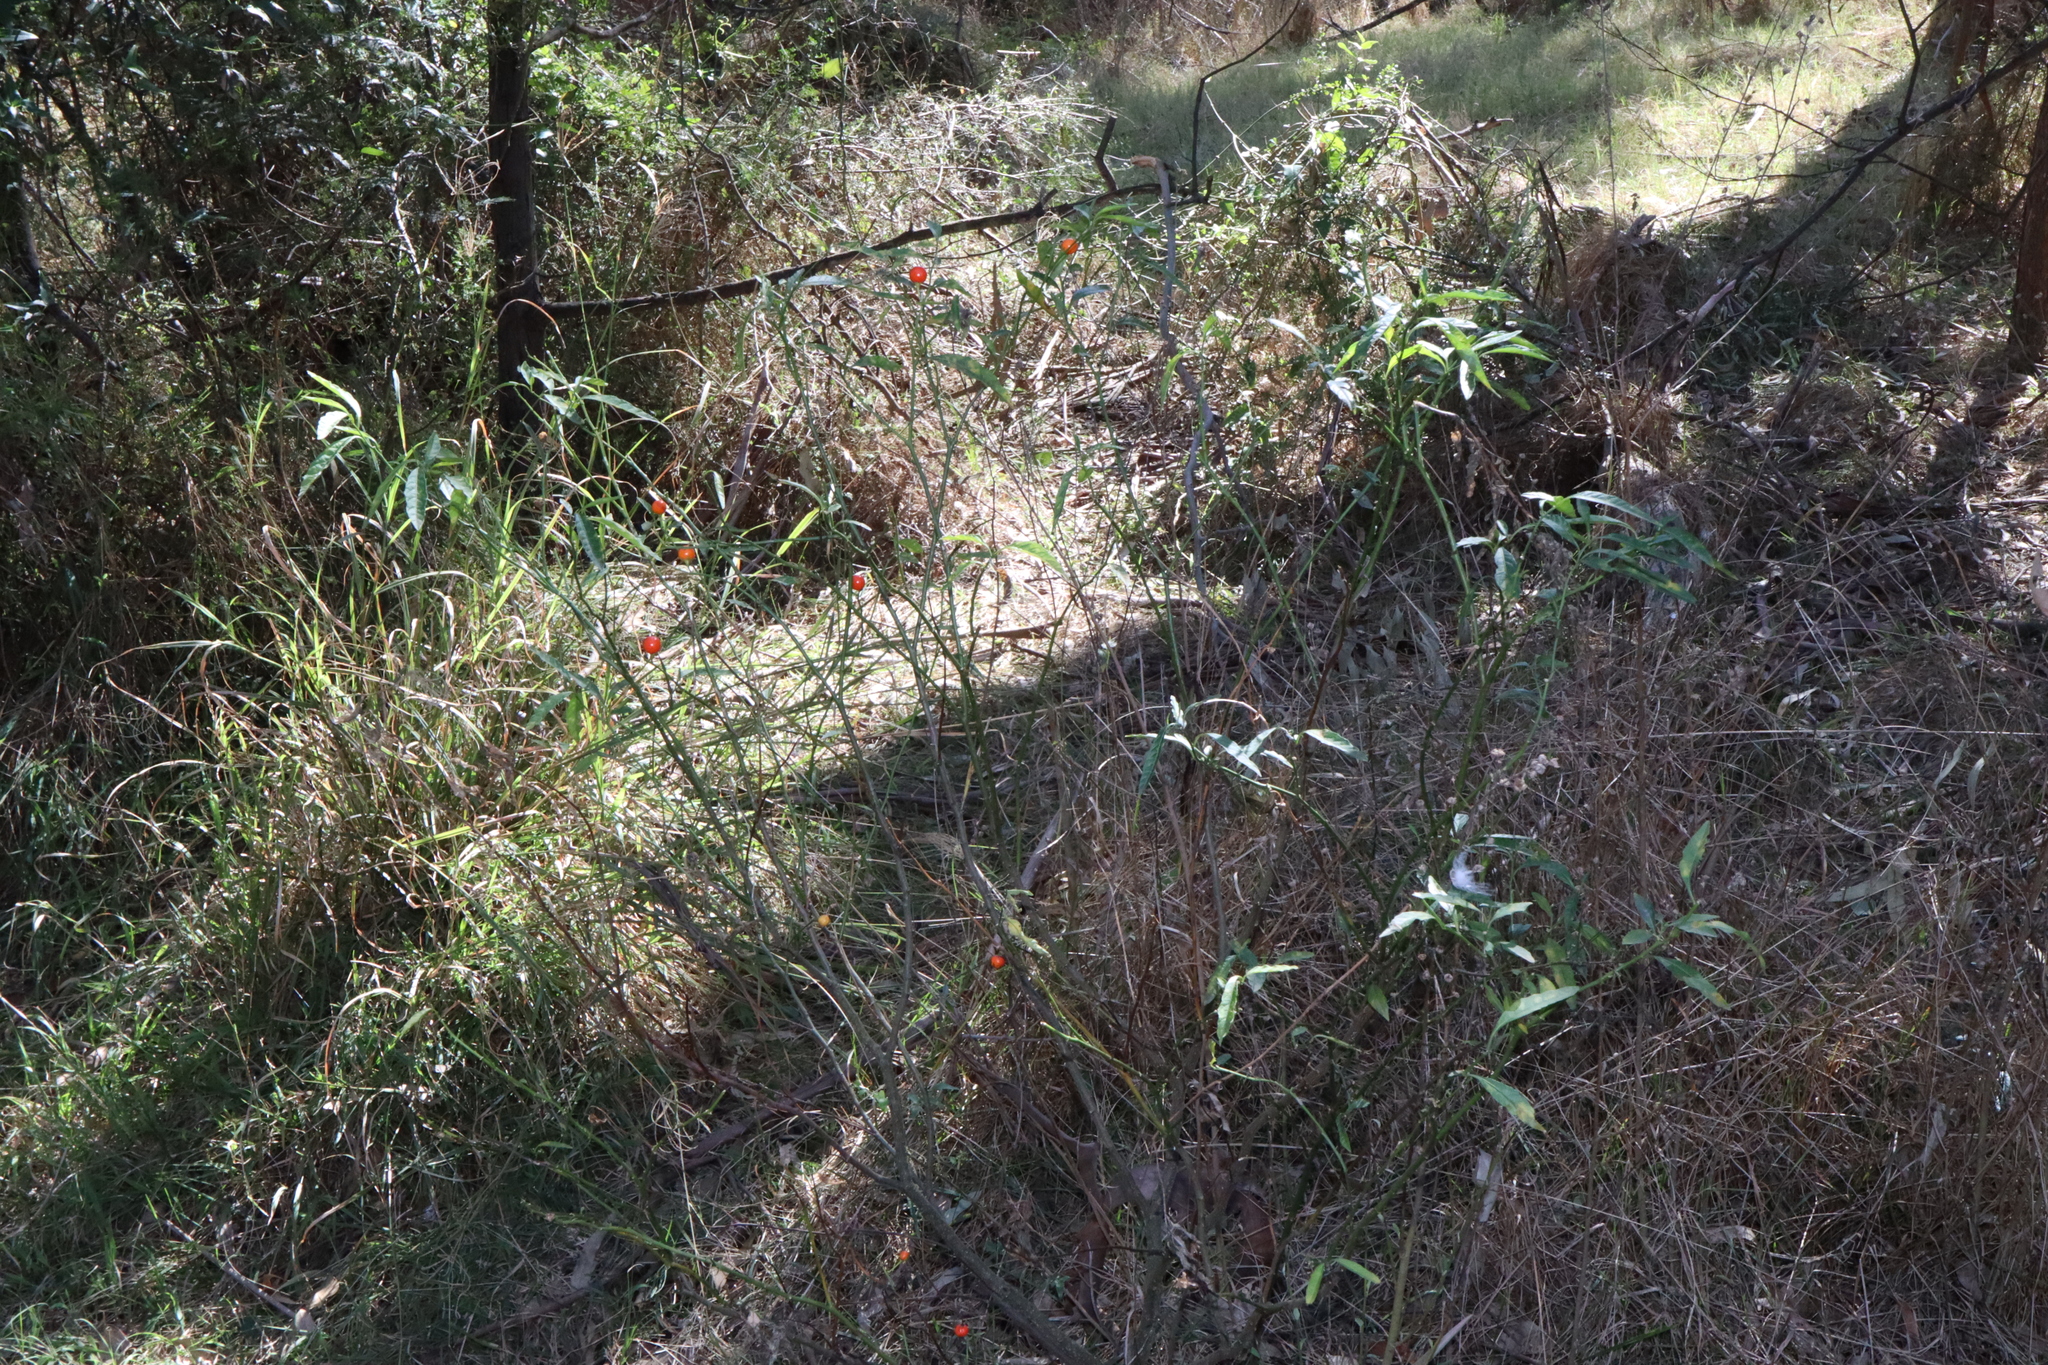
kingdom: Plantae
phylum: Tracheophyta
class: Magnoliopsida
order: Solanales
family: Solanaceae
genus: Solanum
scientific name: Solanum pseudocapsicum
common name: Jerusalem cherry
